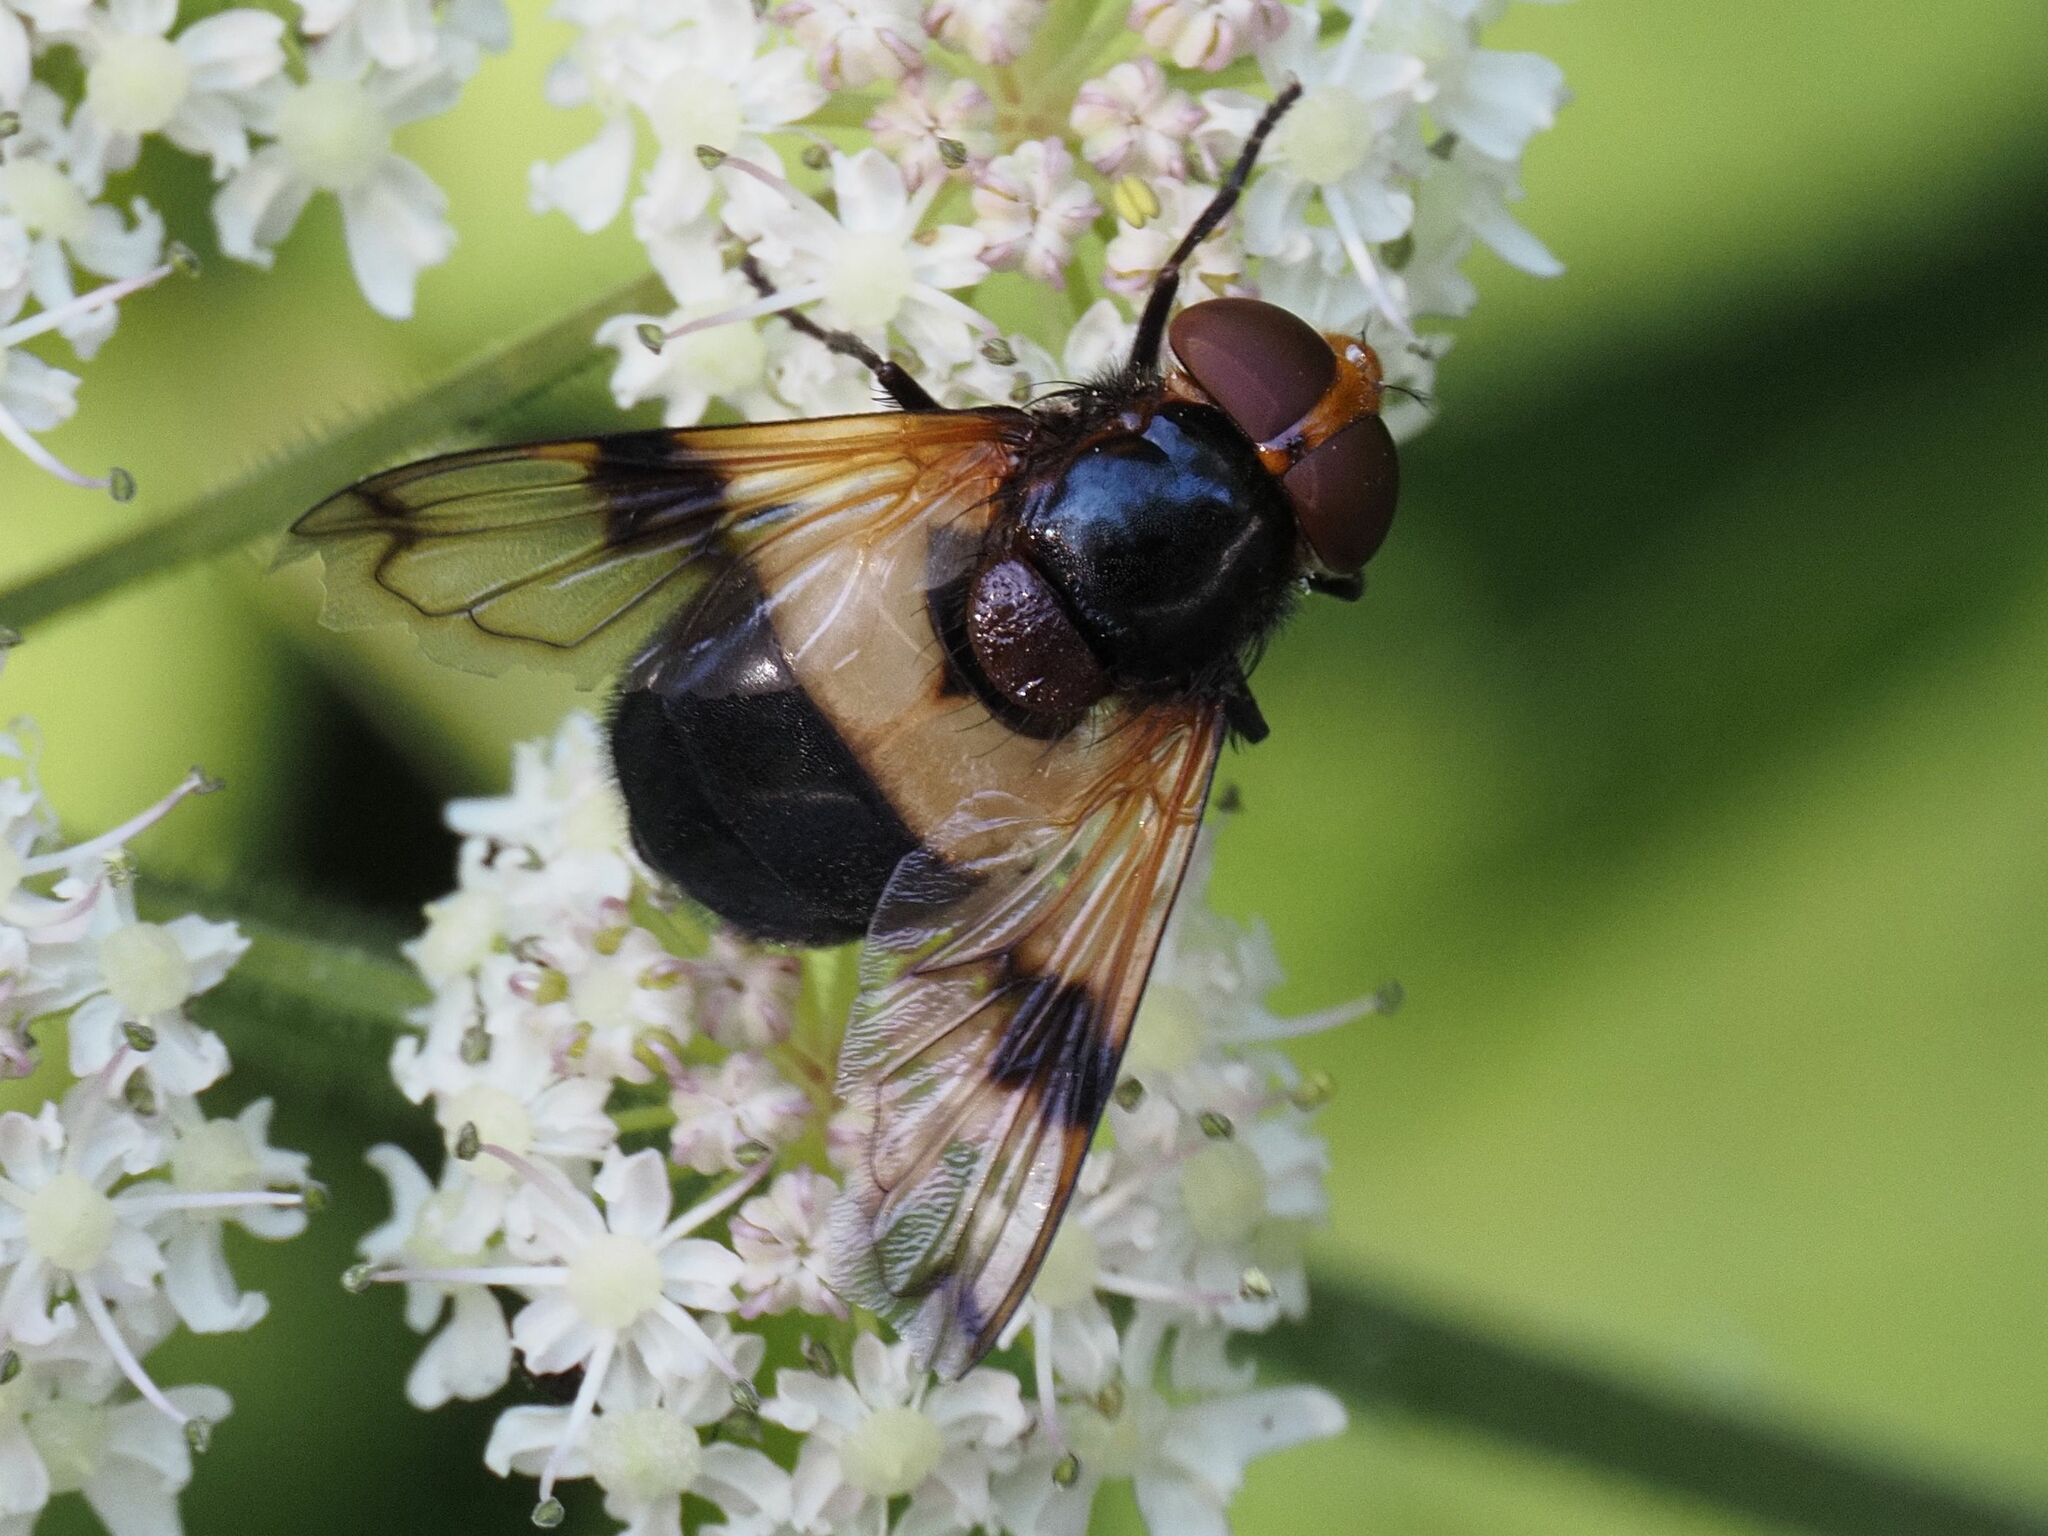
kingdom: Animalia
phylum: Arthropoda
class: Insecta
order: Diptera
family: Syrphidae
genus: Volucella
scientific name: Volucella pellucens
